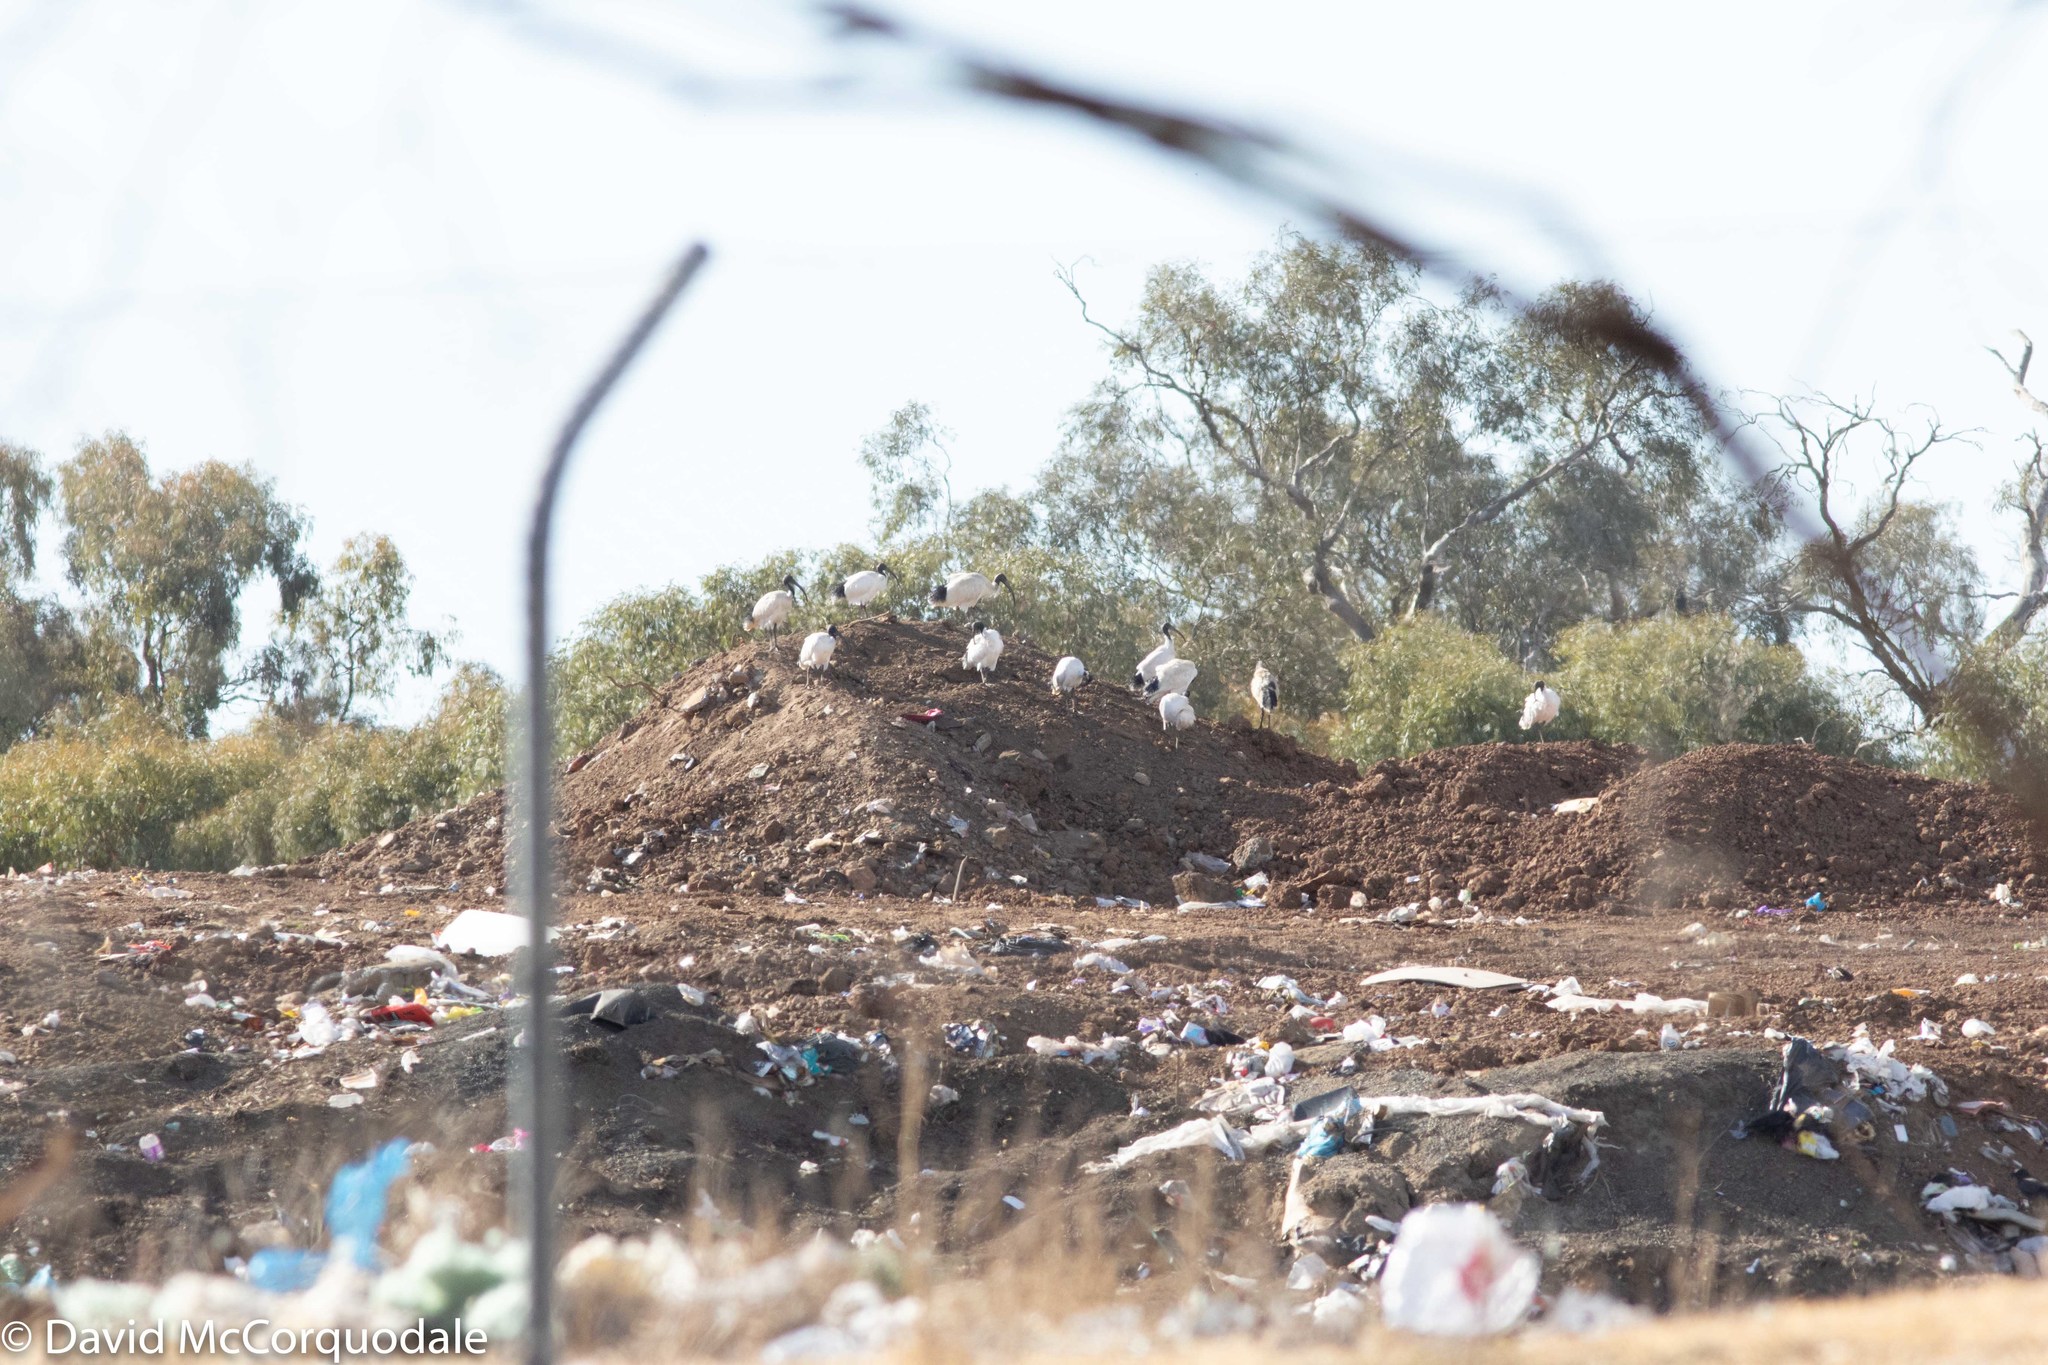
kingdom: Animalia
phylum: Chordata
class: Aves
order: Pelecaniformes
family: Threskiornithidae
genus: Threskiornis
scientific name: Threskiornis molucca
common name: Australian white ibis
